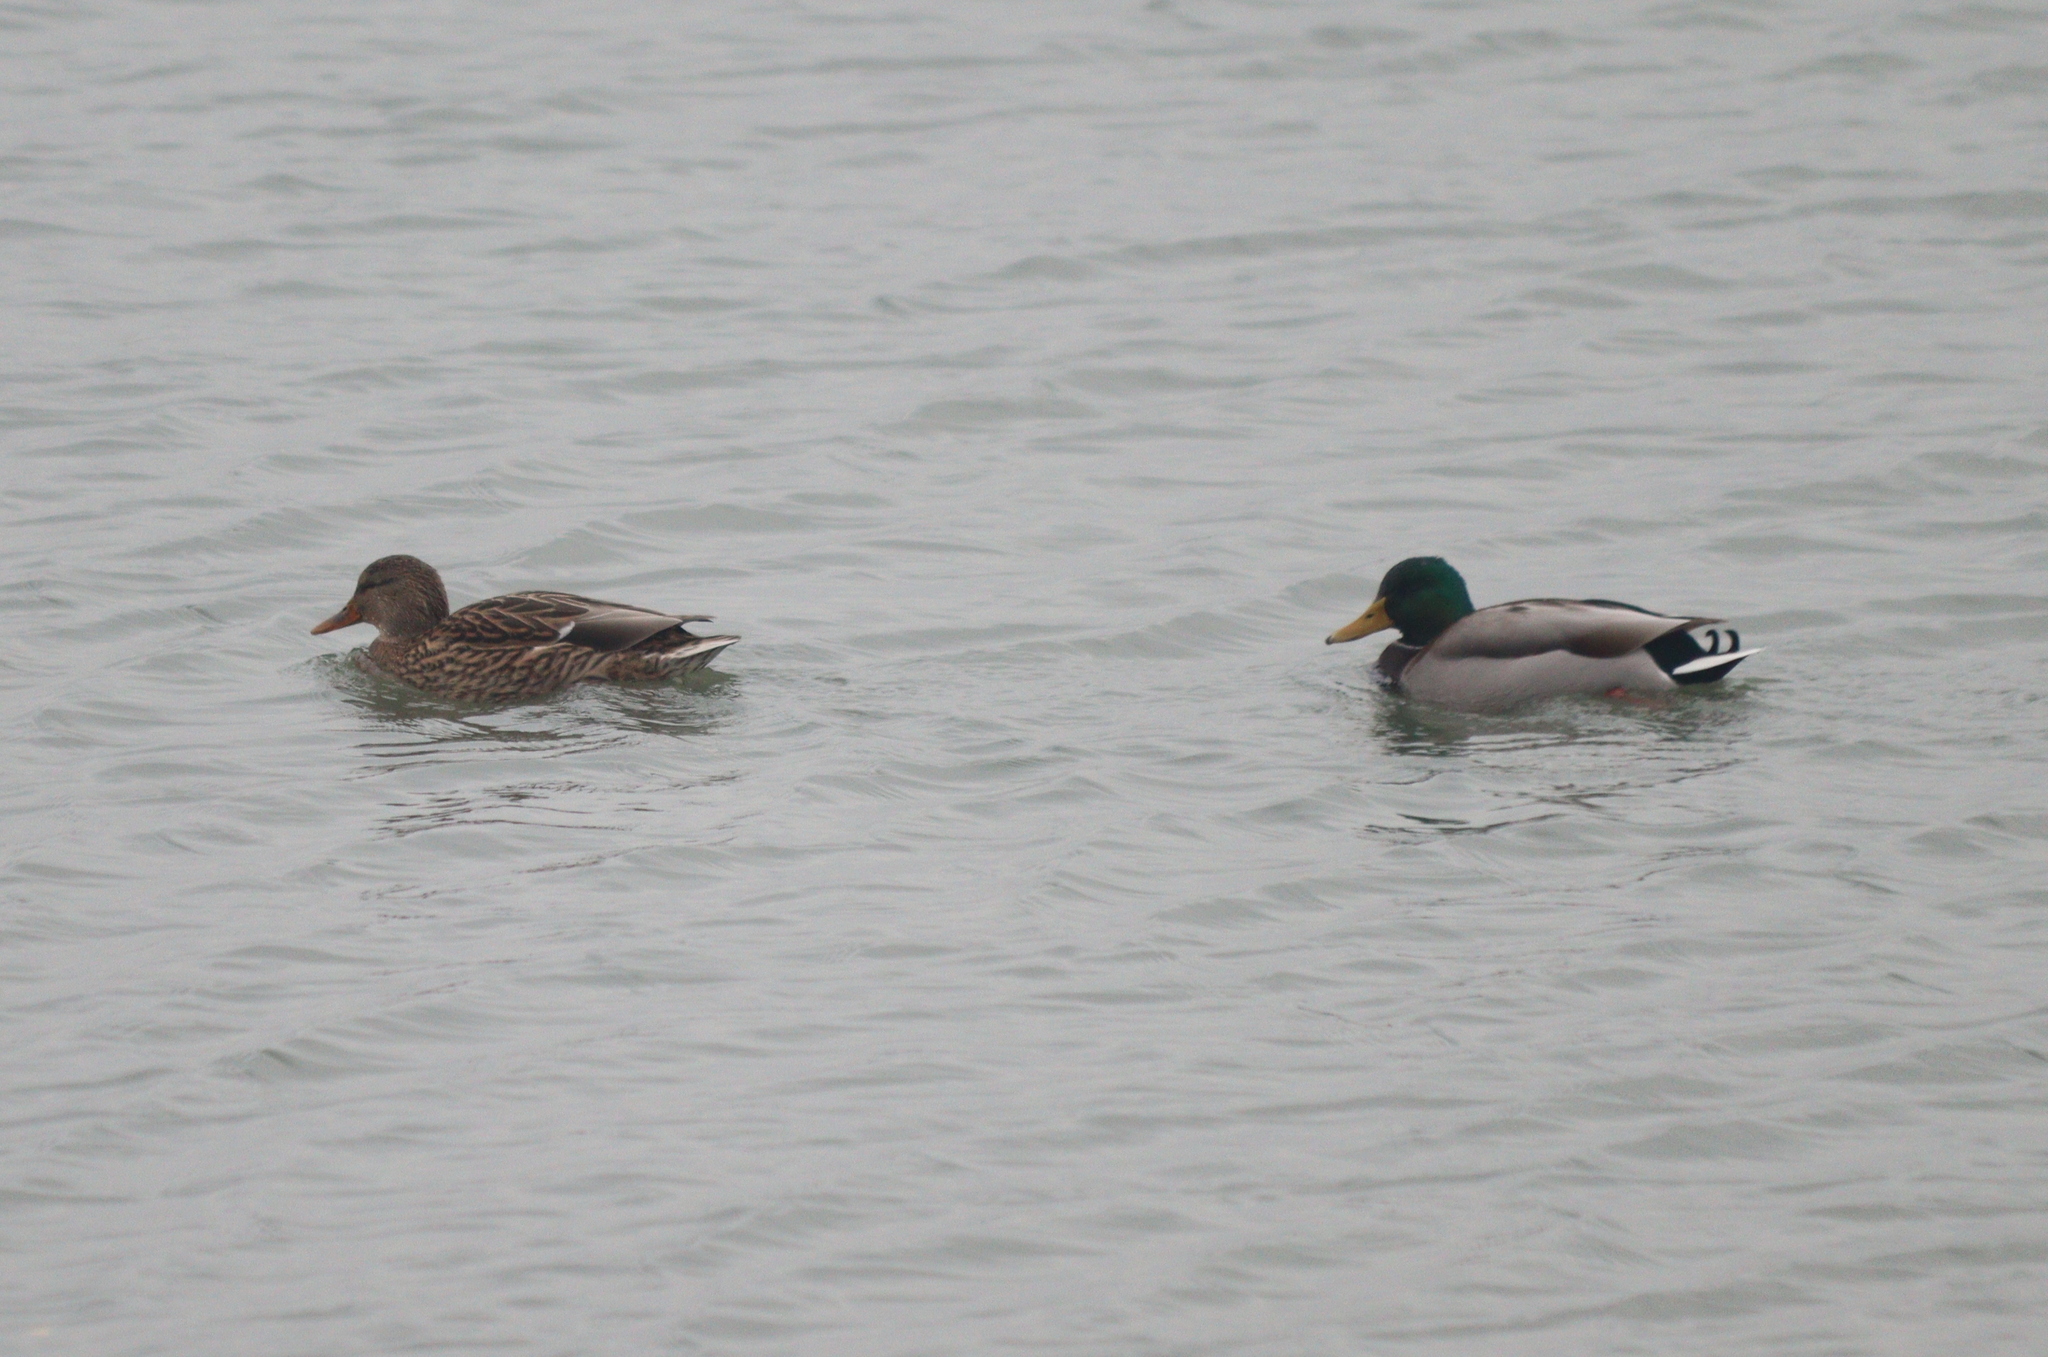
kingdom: Animalia
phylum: Chordata
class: Aves
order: Anseriformes
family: Anatidae
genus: Anas
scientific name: Anas platyrhynchos
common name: Mallard
